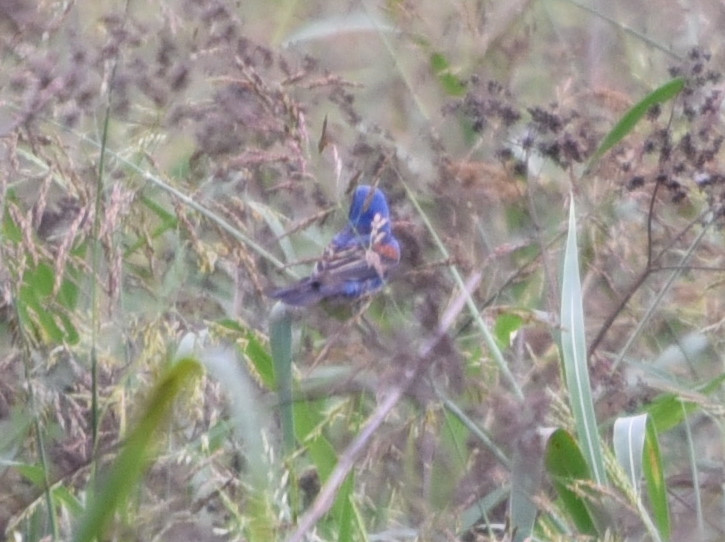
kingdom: Animalia
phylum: Chordata
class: Aves
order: Passeriformes
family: Cardinalidae
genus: Passerina
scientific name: Passerina caerulea
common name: Blue grosbeak
